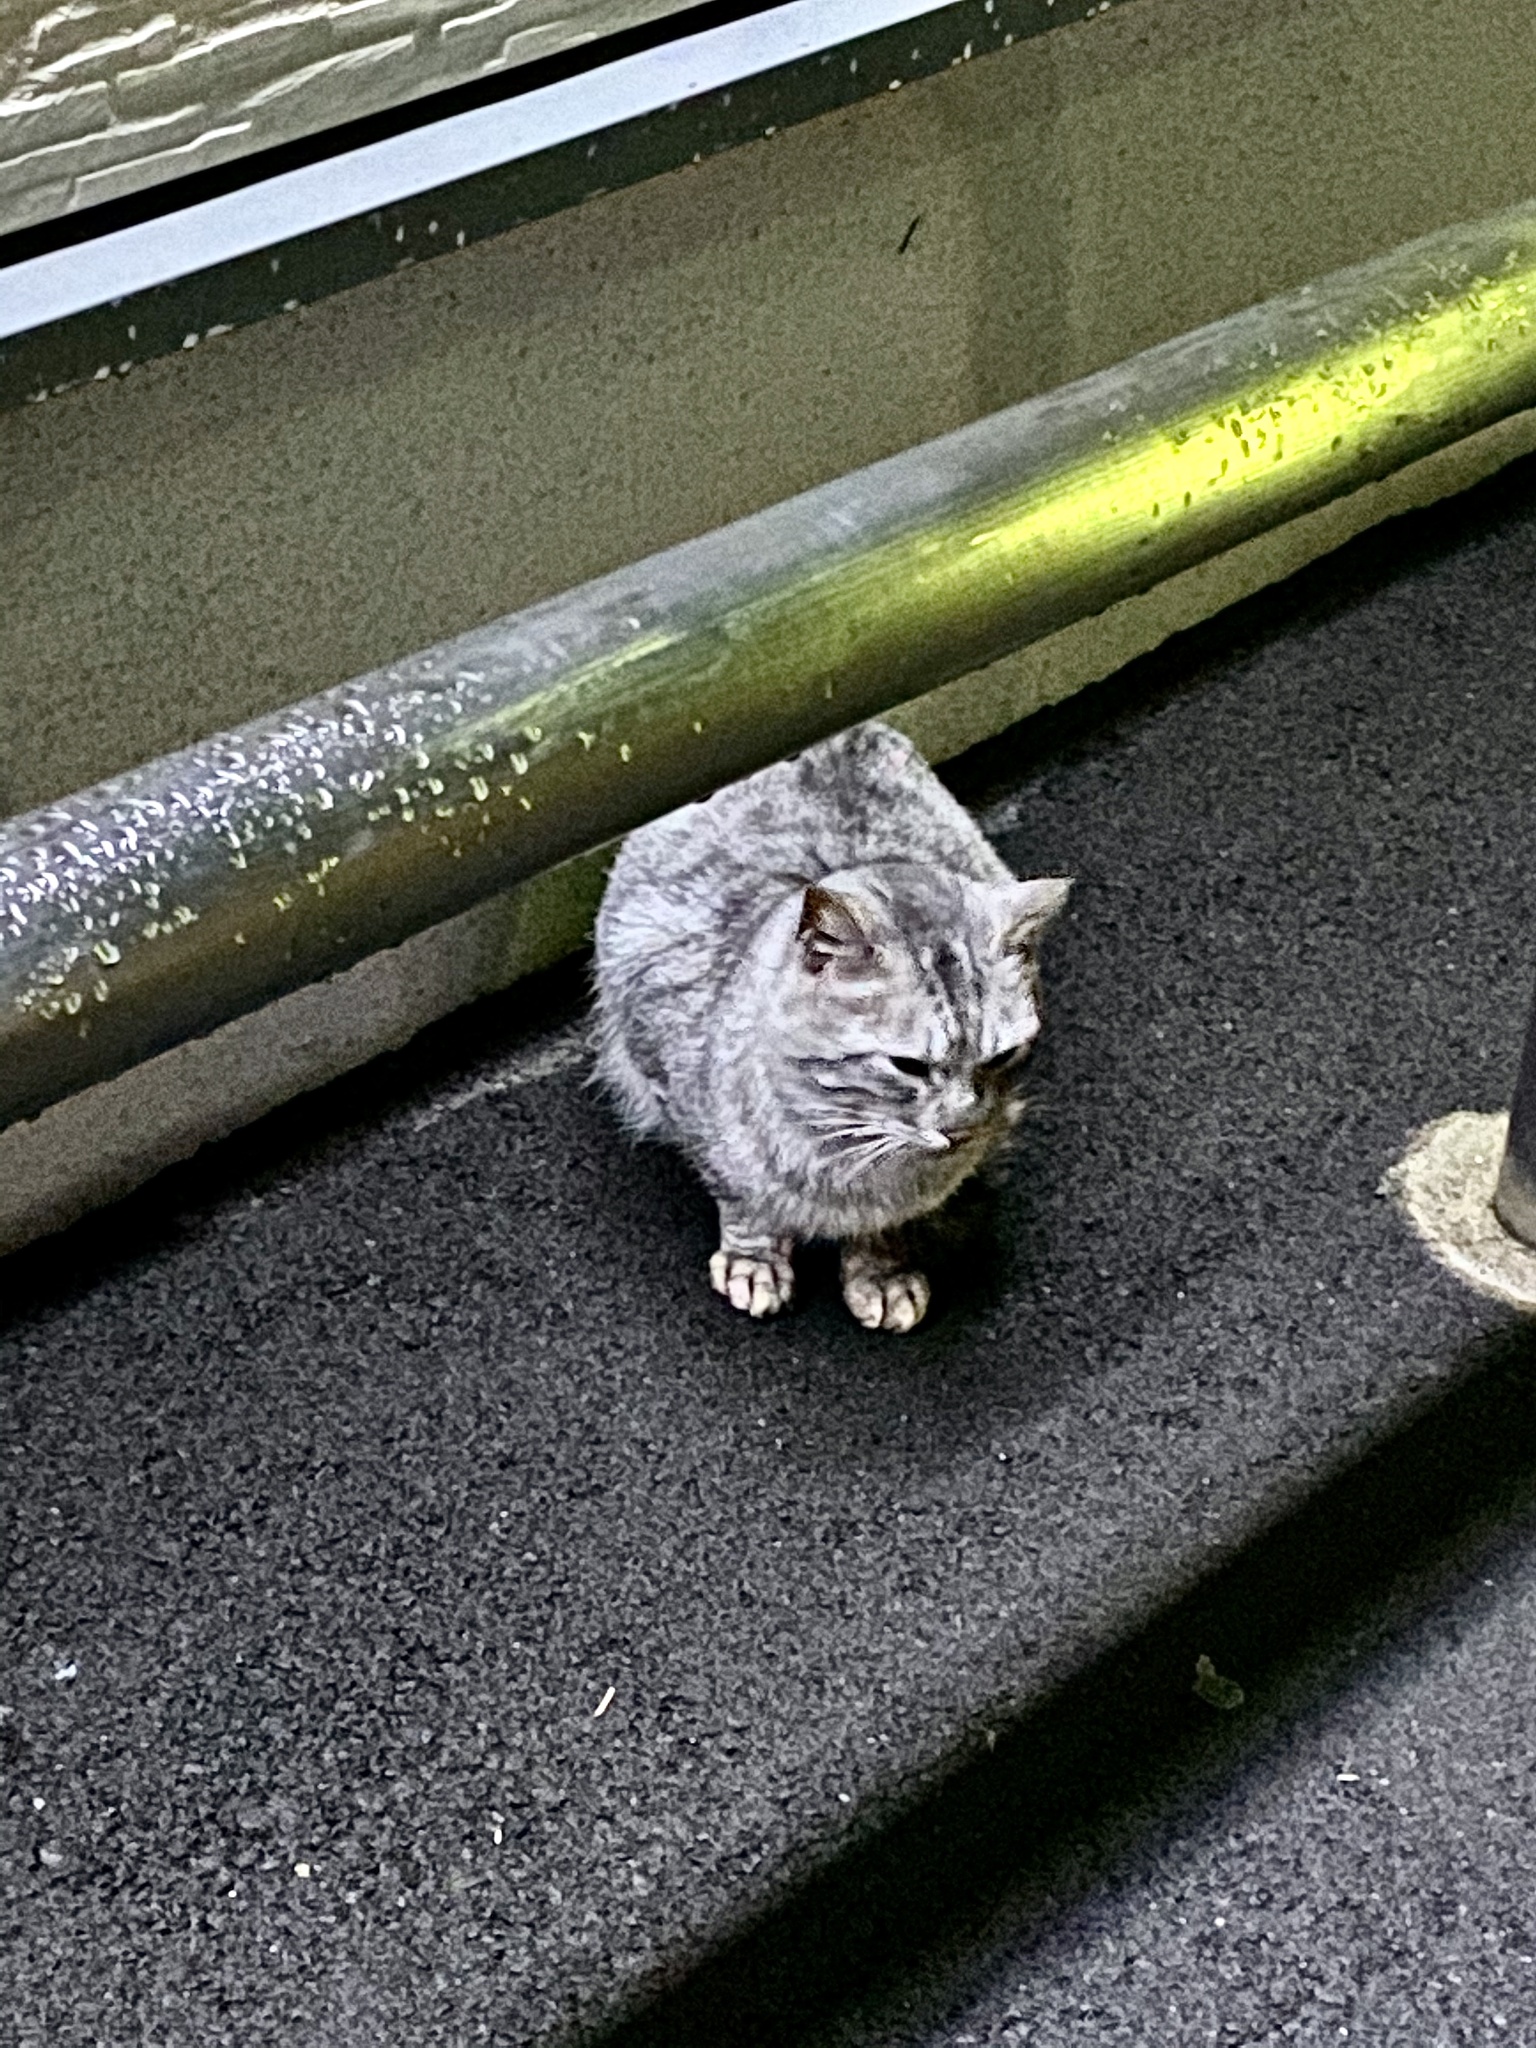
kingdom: Animalia
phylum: Chordata
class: Mammalia
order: Carnivora
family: Felidae
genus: Felis
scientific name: Felis catus
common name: Domestic cat
